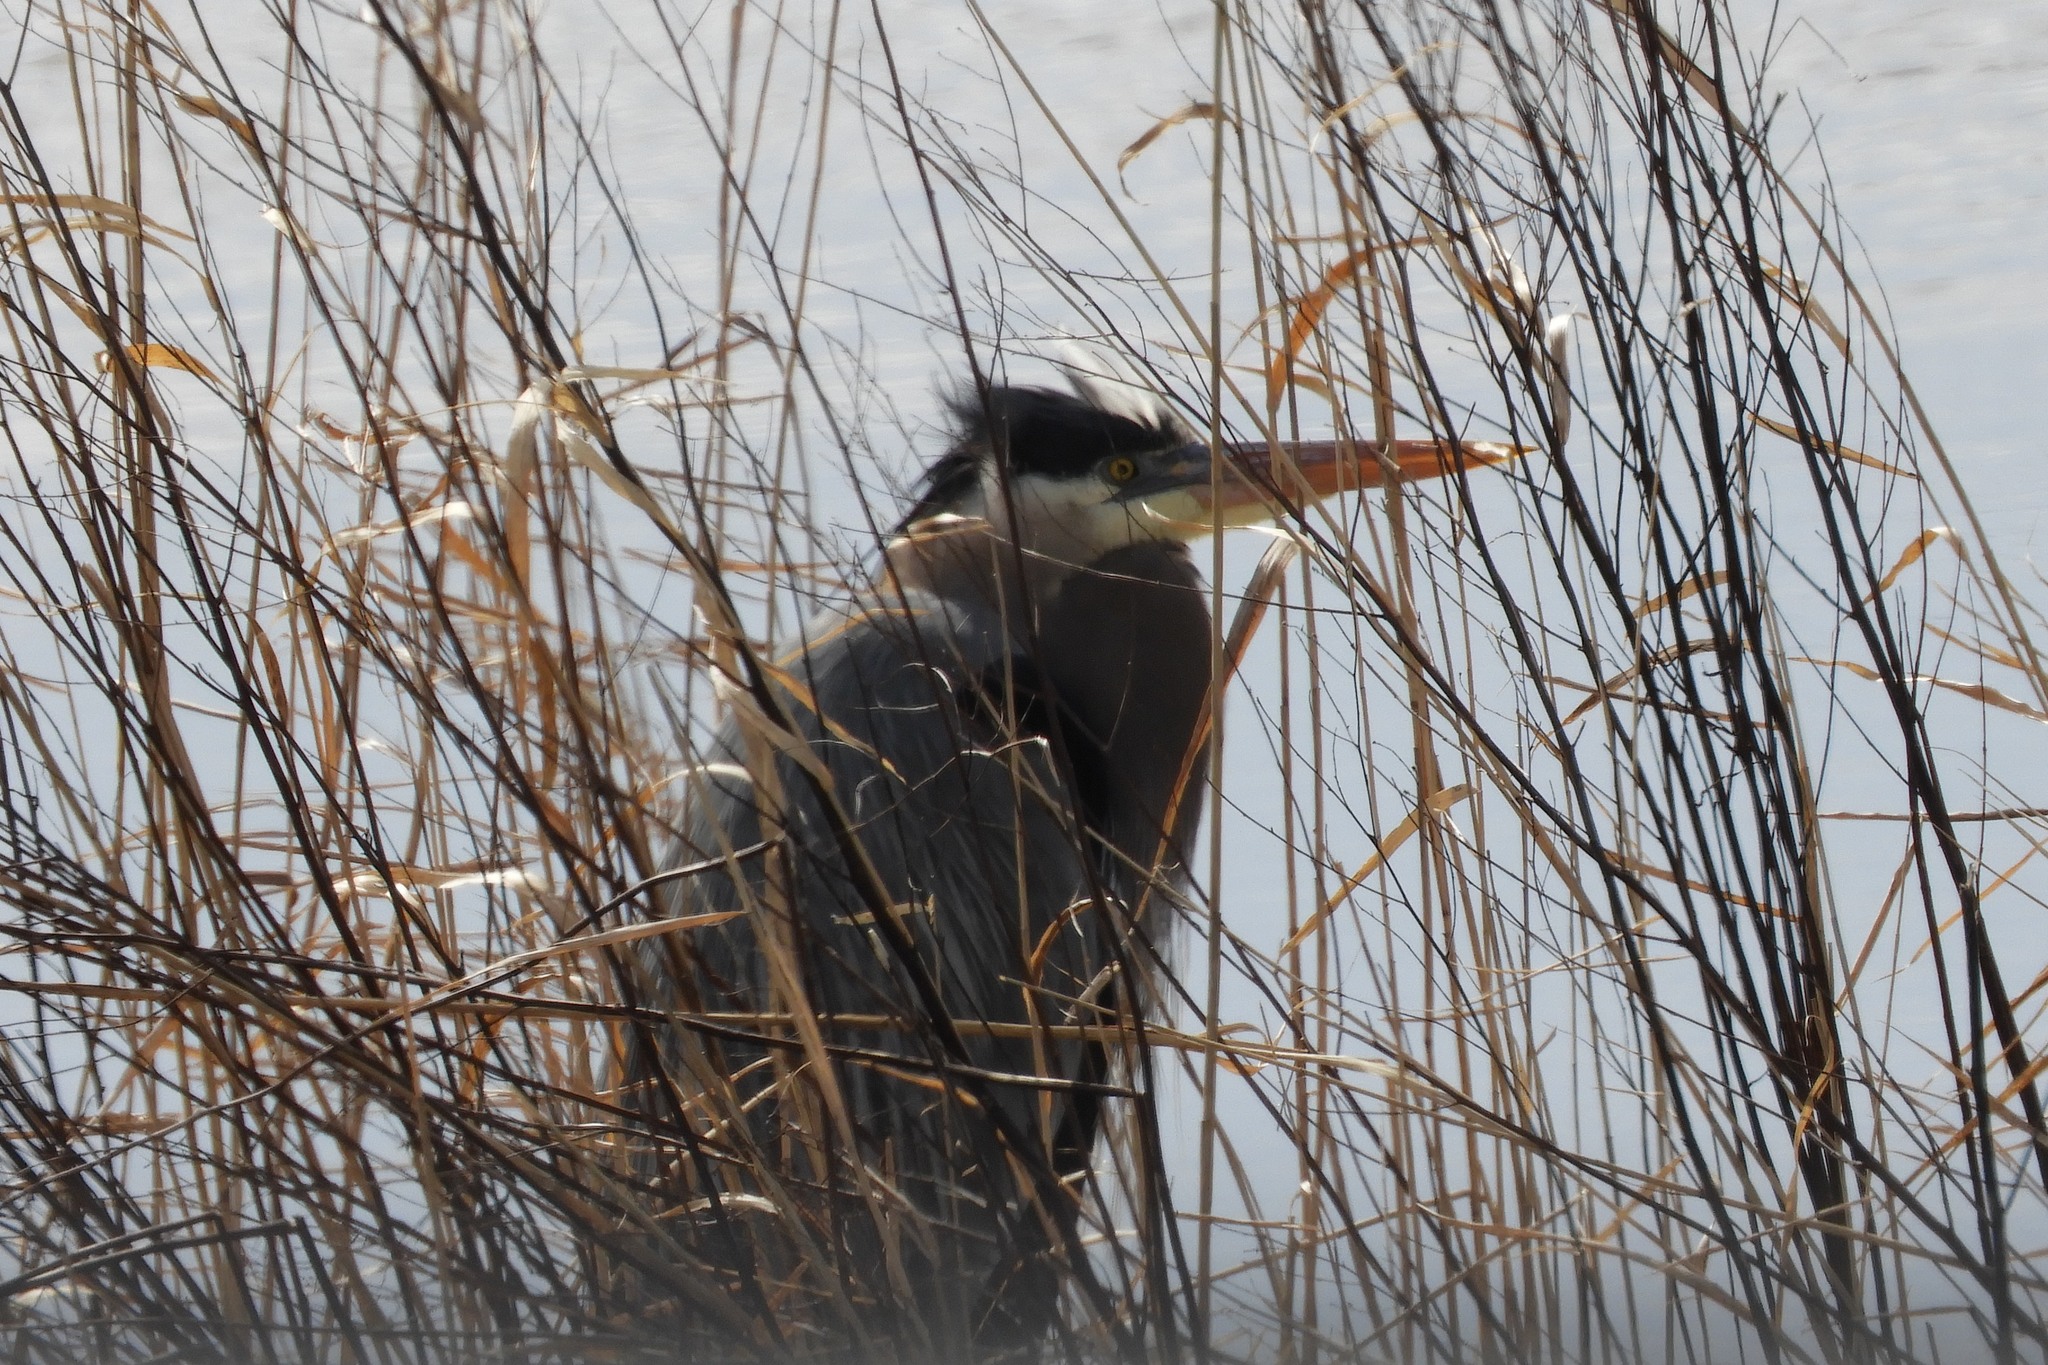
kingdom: Animalia
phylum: Chordata
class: Aves
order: Pelecaniformes
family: Ardeidae
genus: Ardea
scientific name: Ardea herodias
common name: Great blue heron
